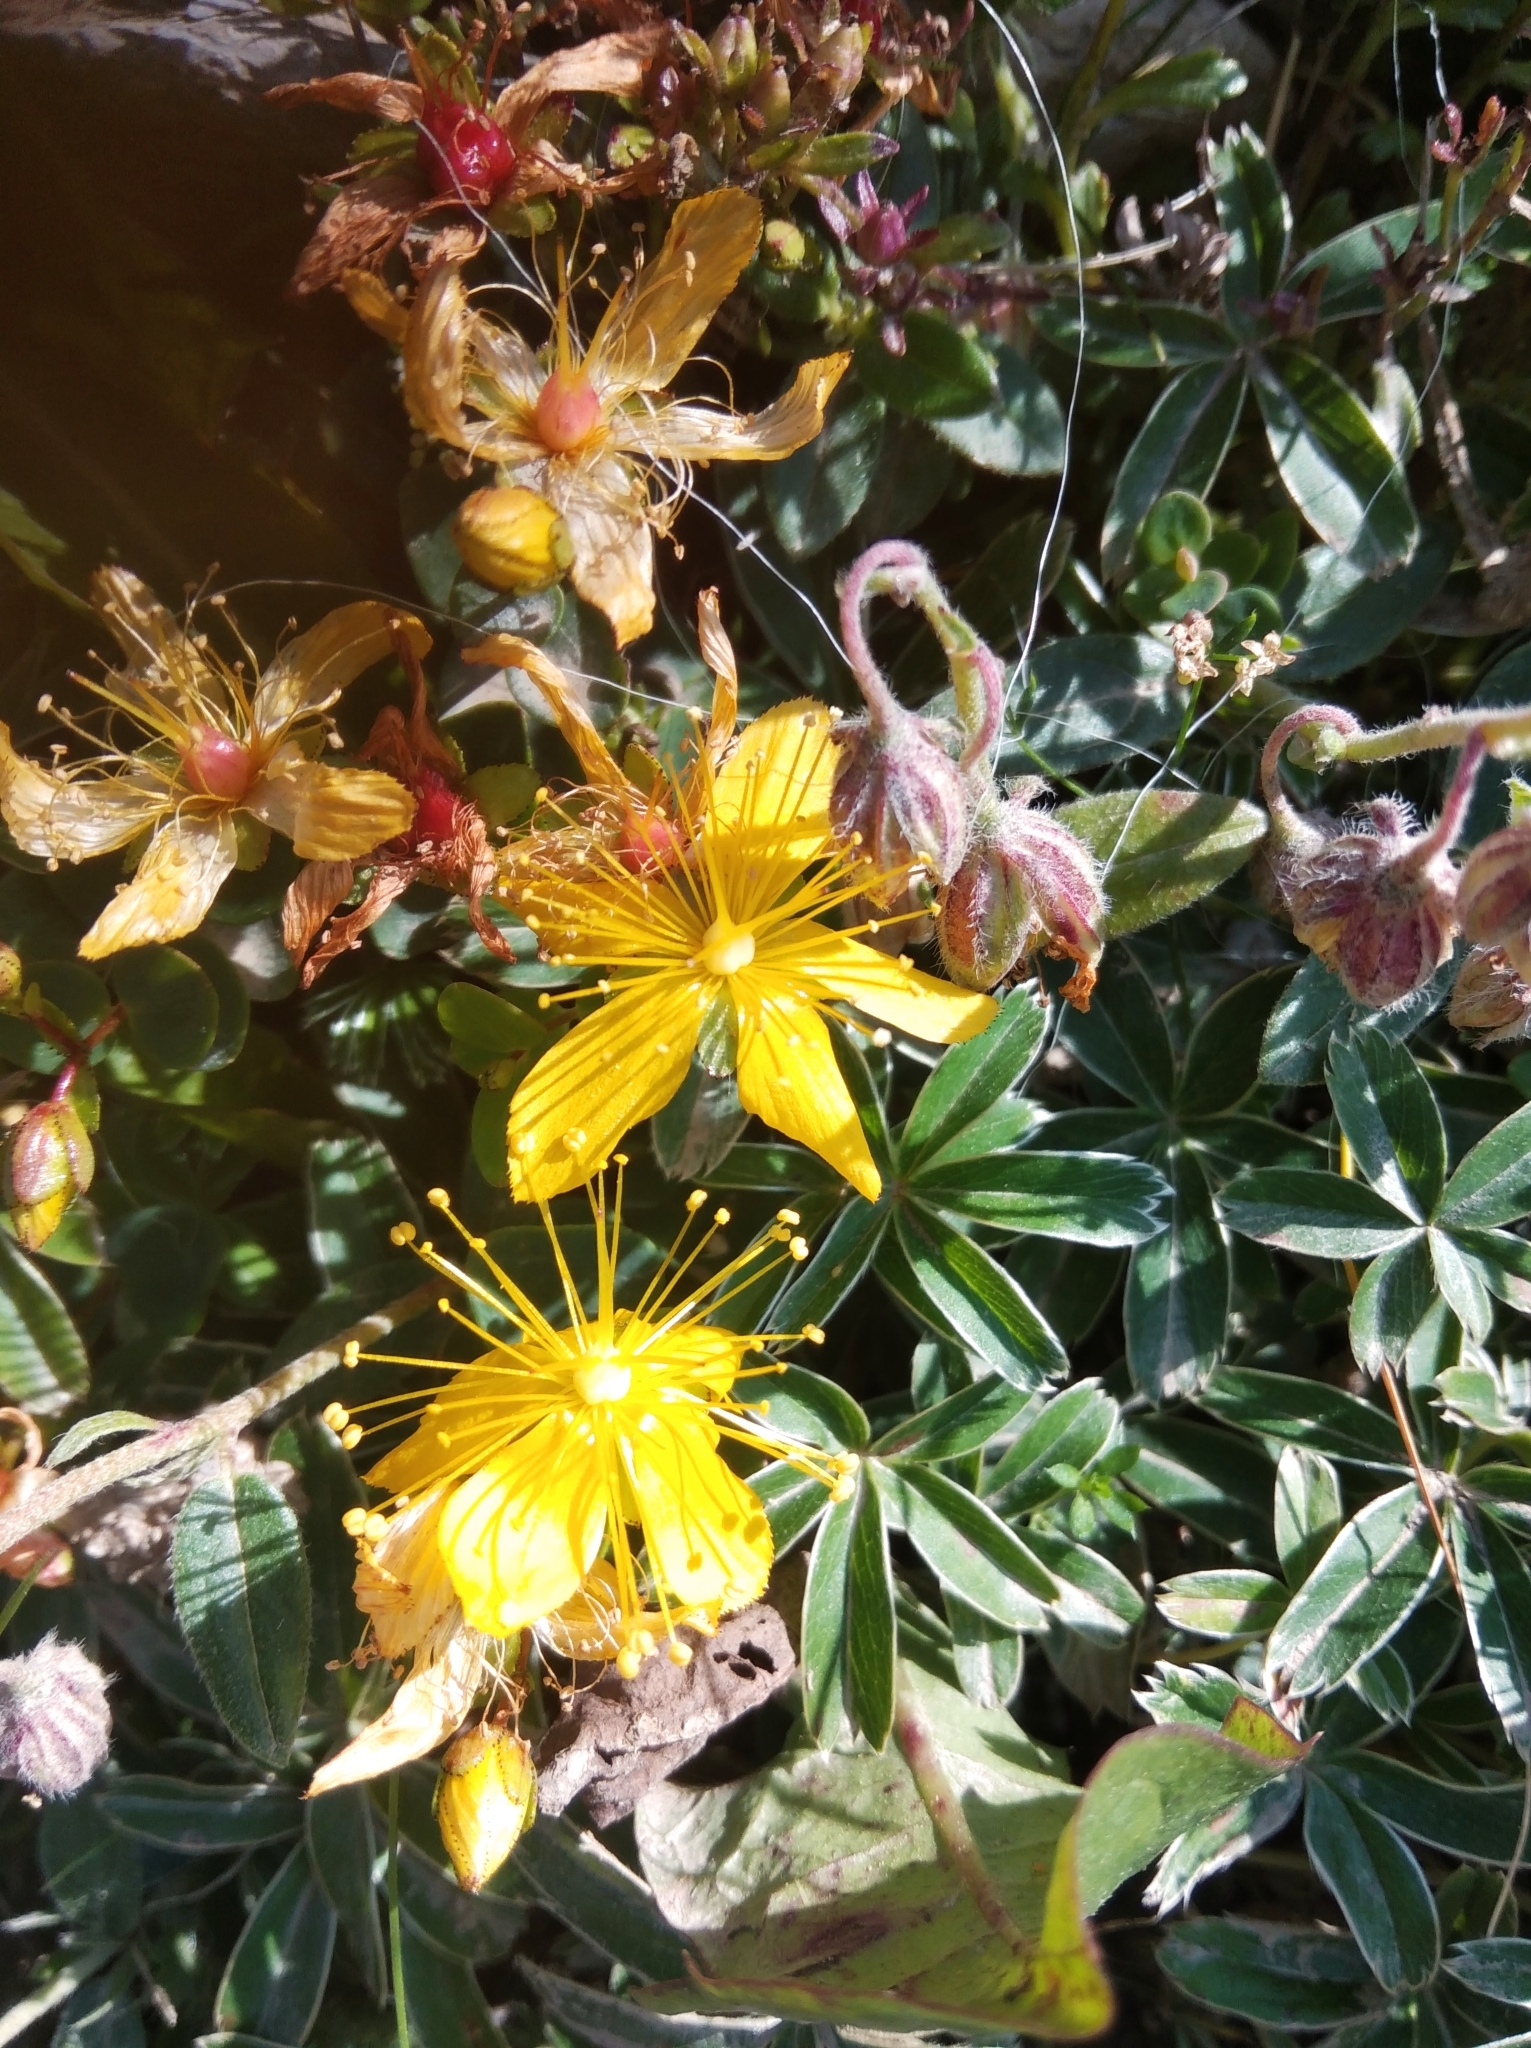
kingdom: Plantae
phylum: Tracheophyta
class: Magnoliopsida
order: Malpighiales
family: Hypericaceae
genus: Hypericum
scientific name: Hypericum nummularium
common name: Round-leaved st john's-wort
